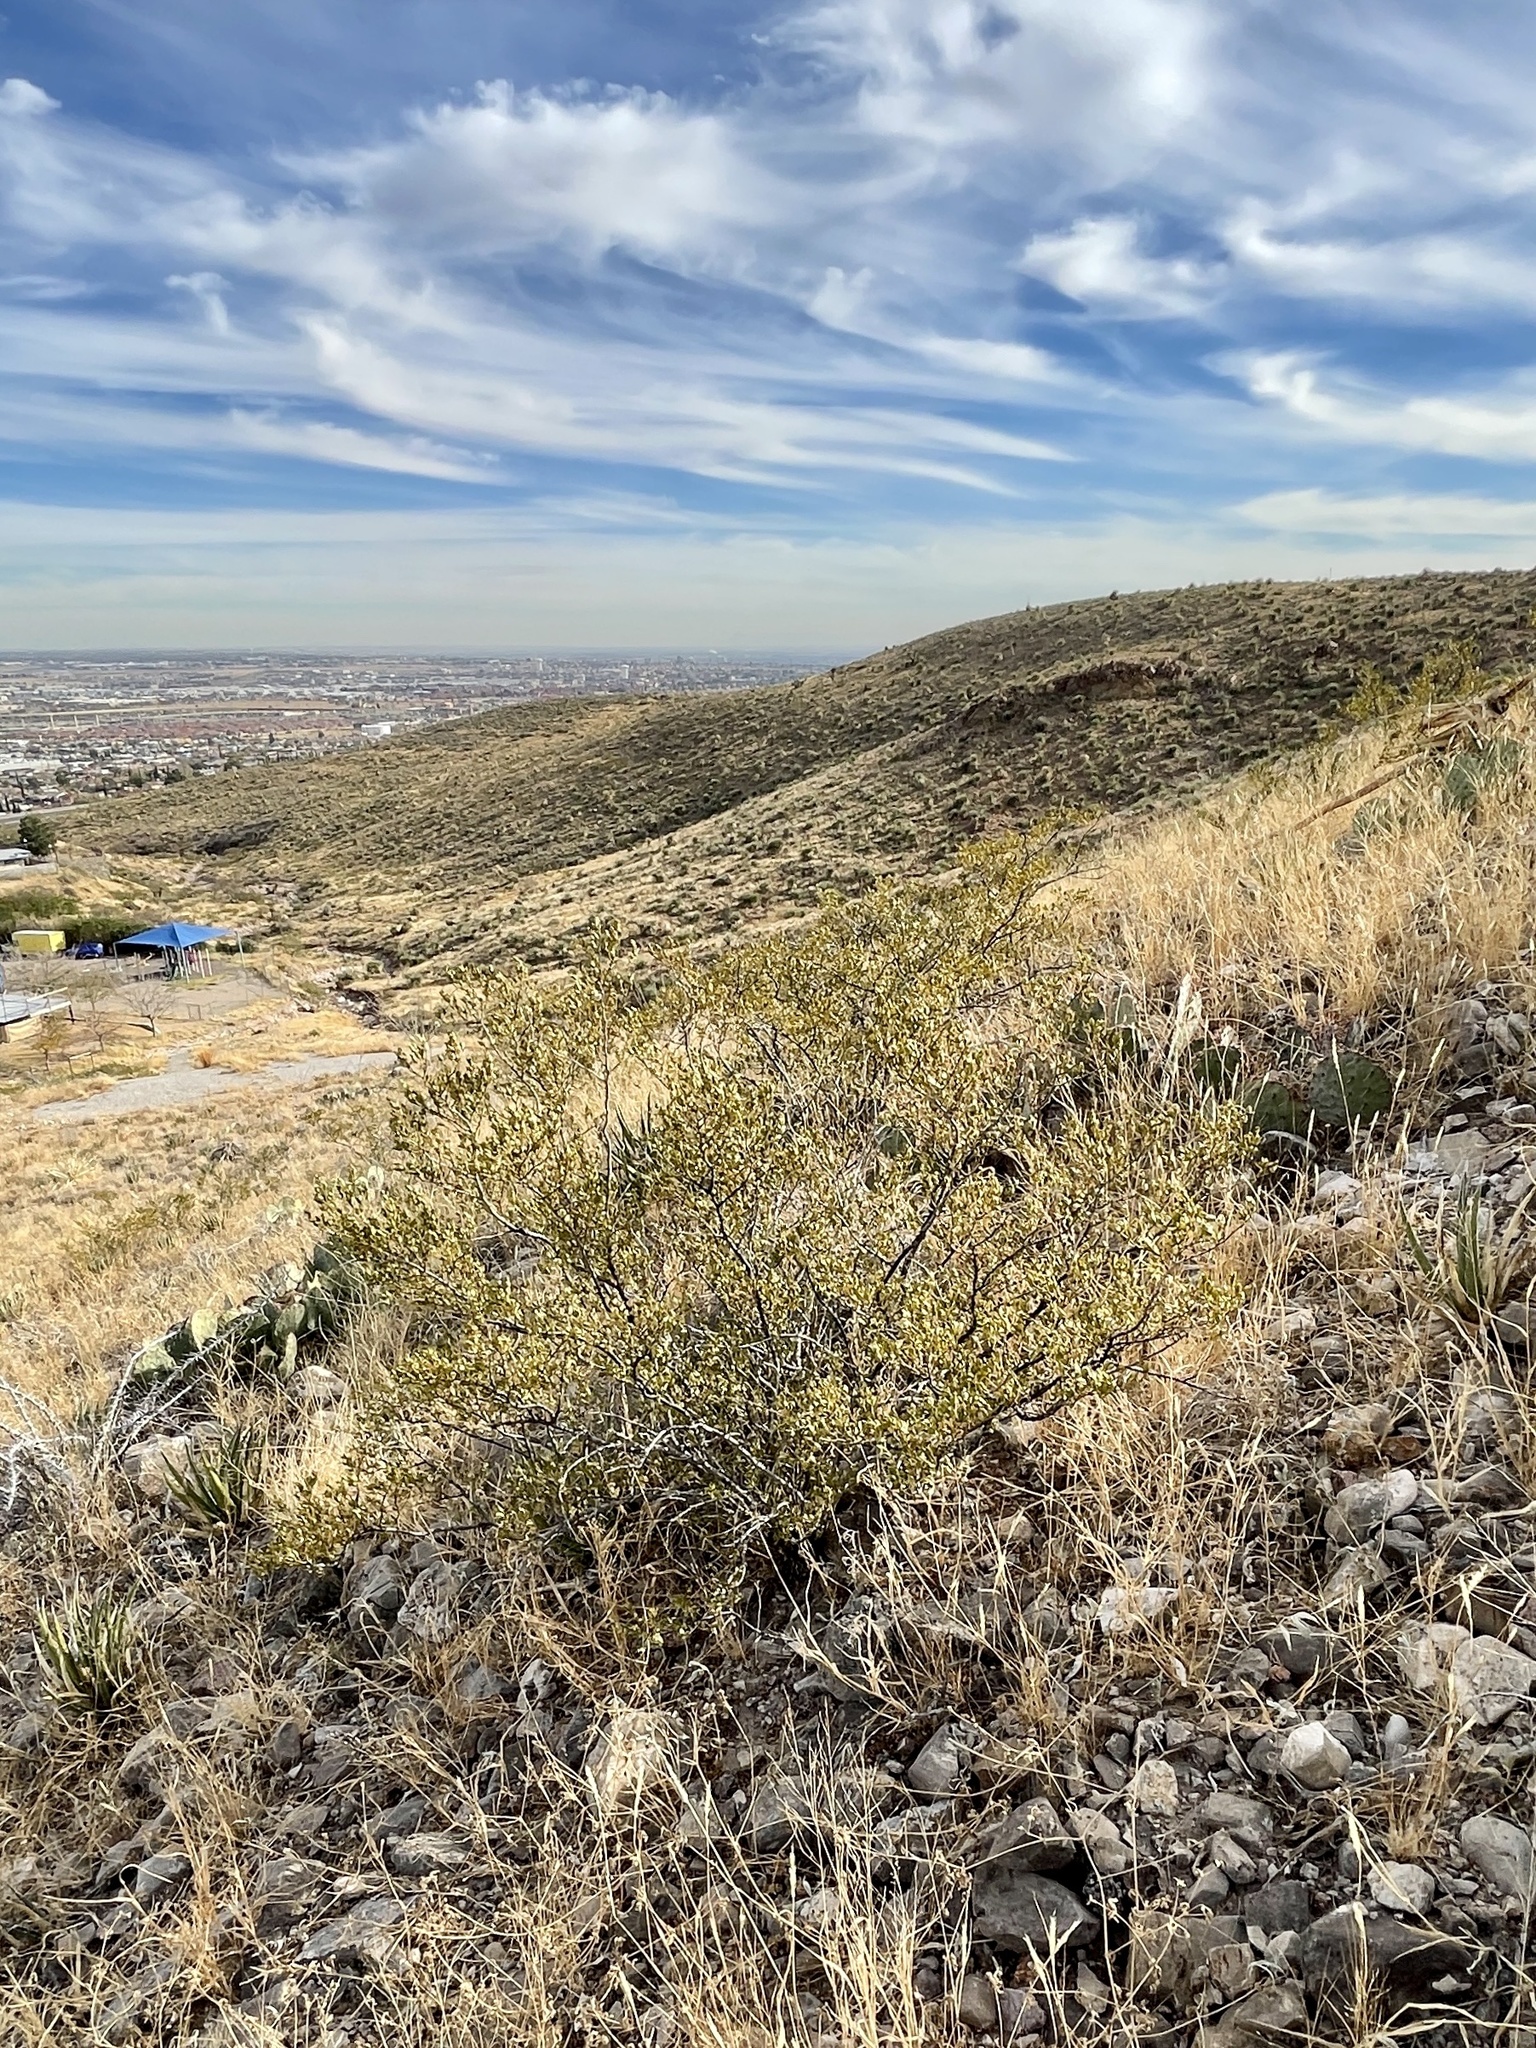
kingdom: Plantae
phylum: Tracheophyta
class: Magnoliopsida
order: Zygophyllales
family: Zygophyllaceae
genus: Larrea
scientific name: Larrea tridentata
